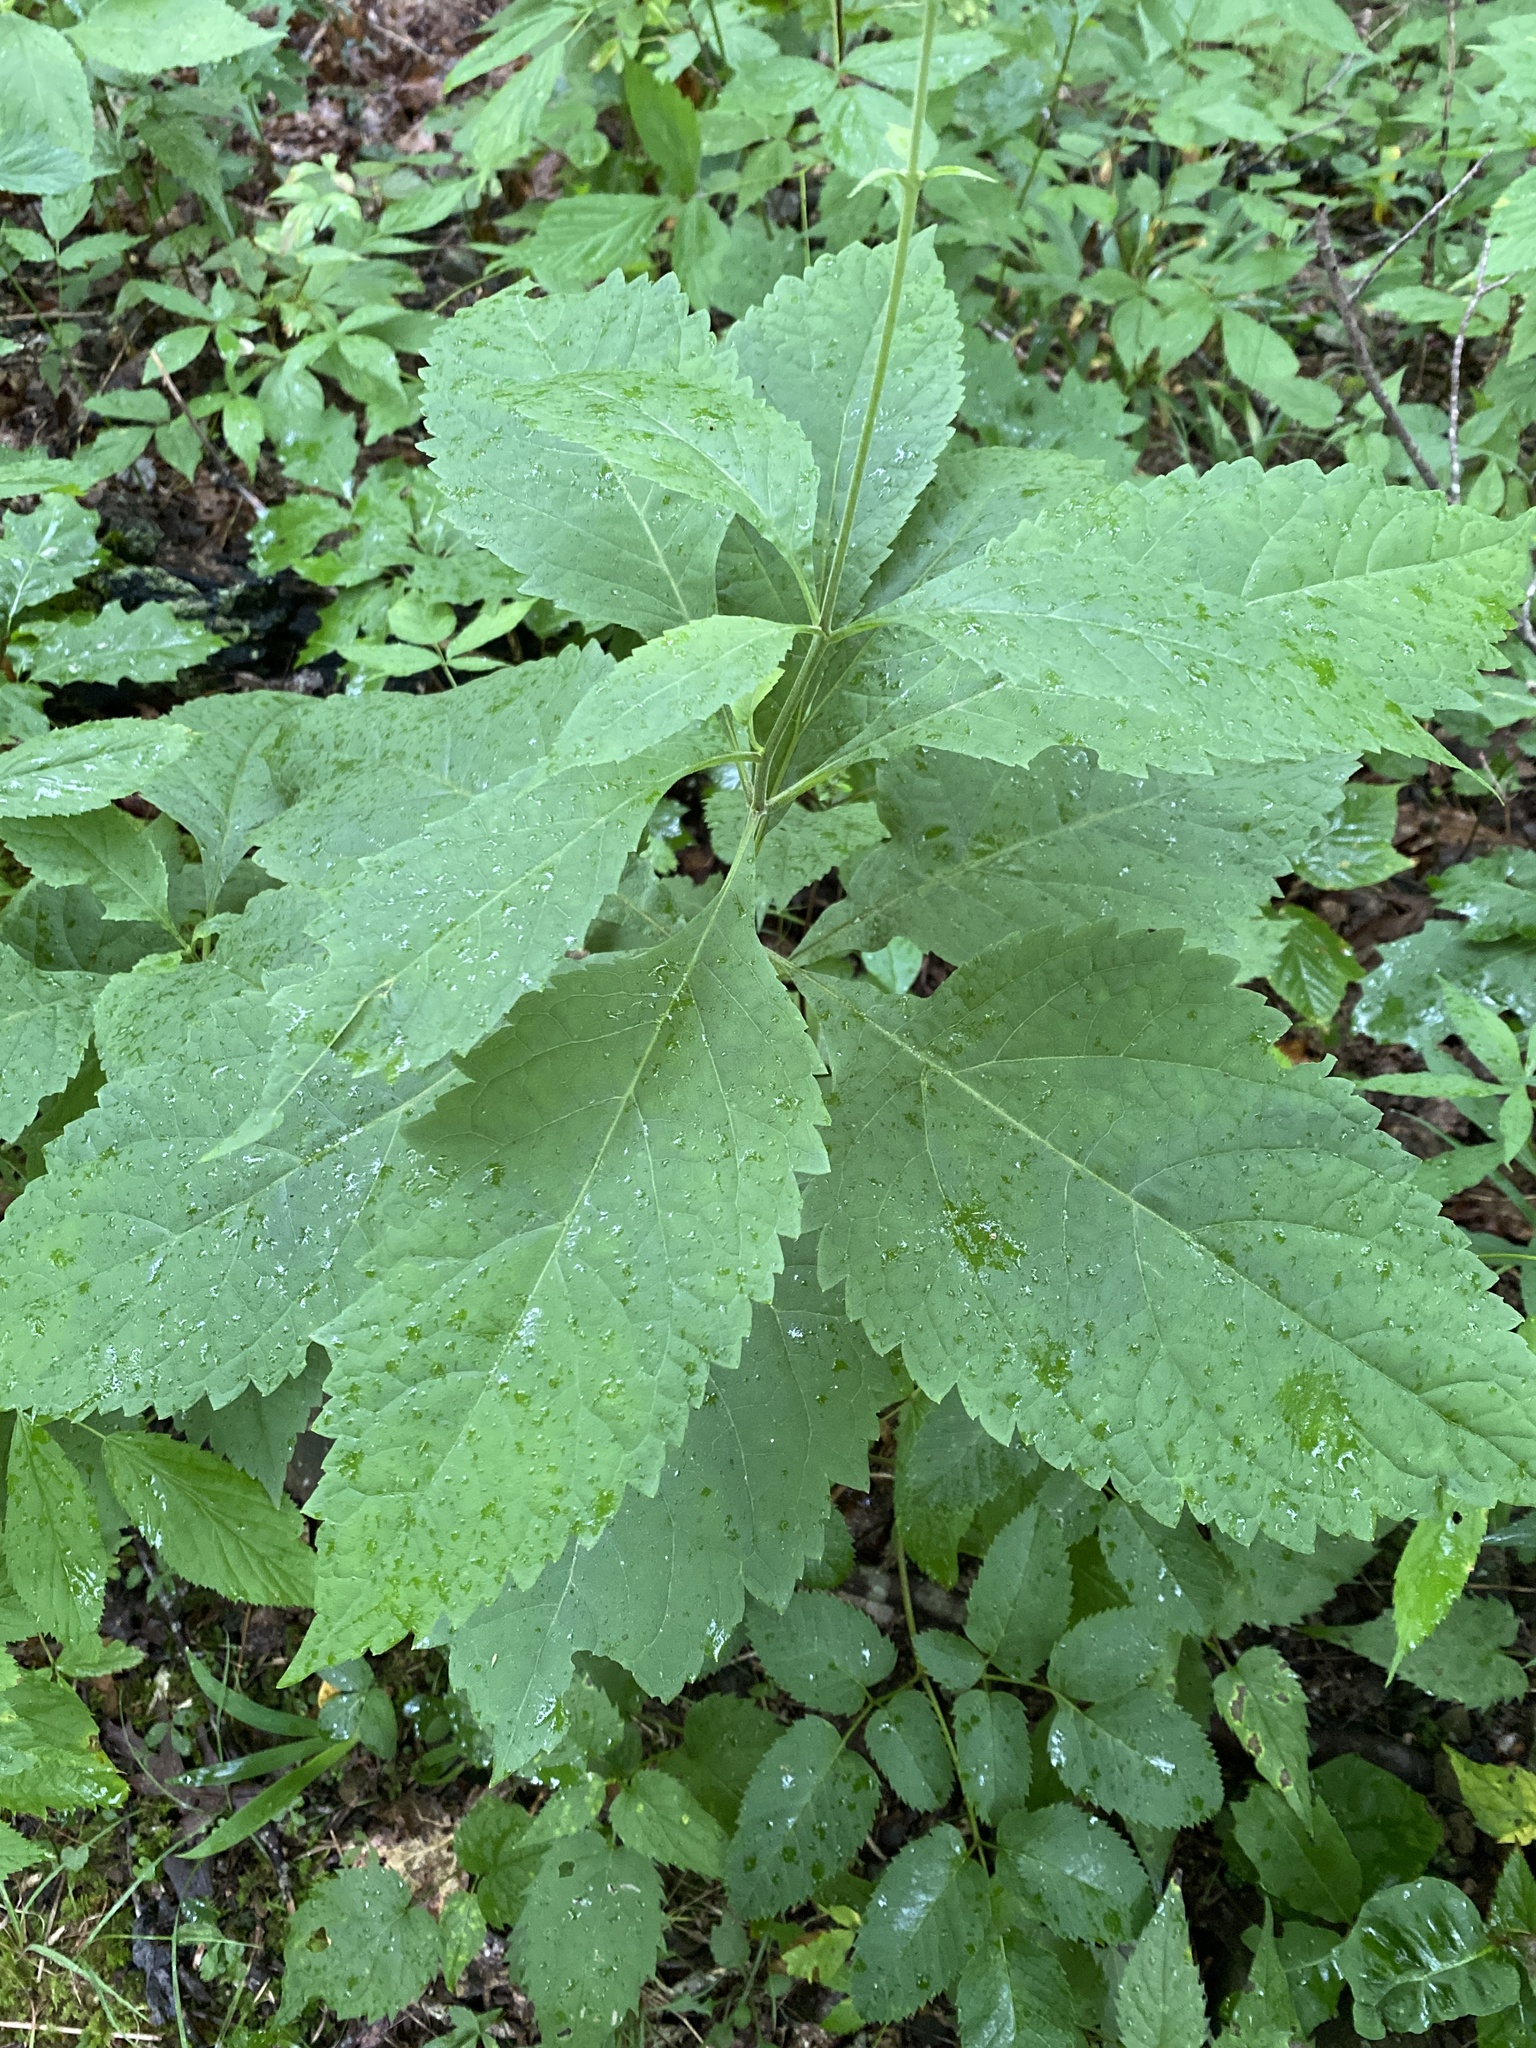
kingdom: Plantae
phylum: Tracheophyta
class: Magnoliopsida
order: Asterales
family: Asteraceae
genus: Eutrochium
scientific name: Eutrochium steelei
